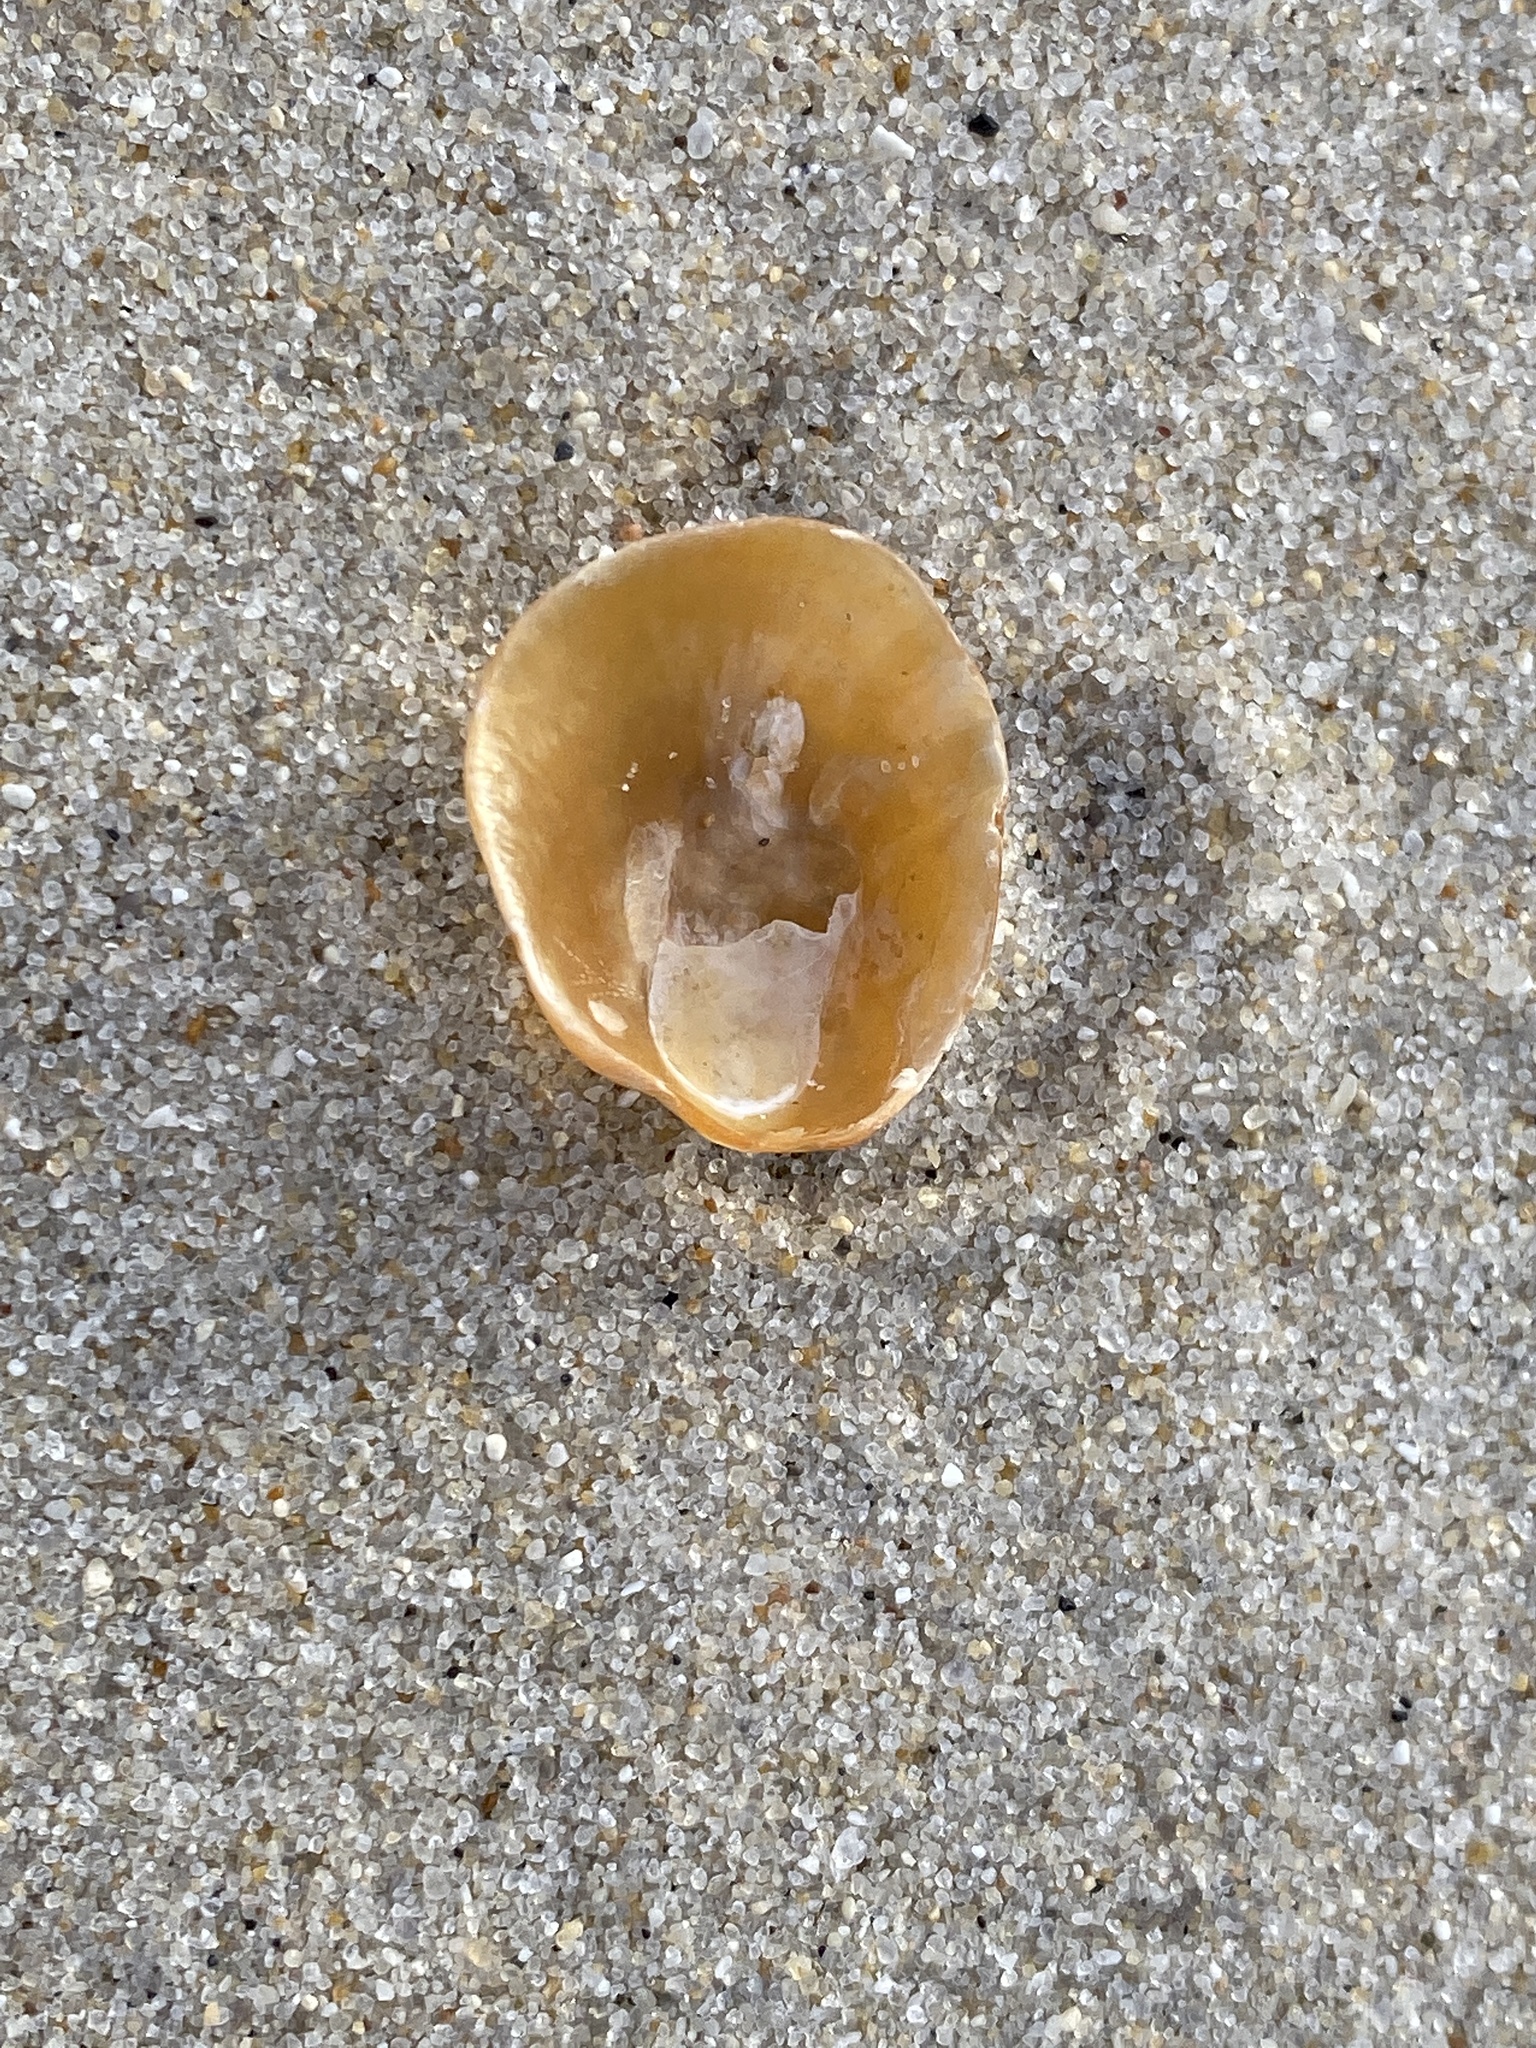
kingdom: Animalia
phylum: Mollusca
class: Bivalvia
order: Pectinida
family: Anomiidae
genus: Anomia
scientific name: Anomia simplex
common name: Common jingle shell
